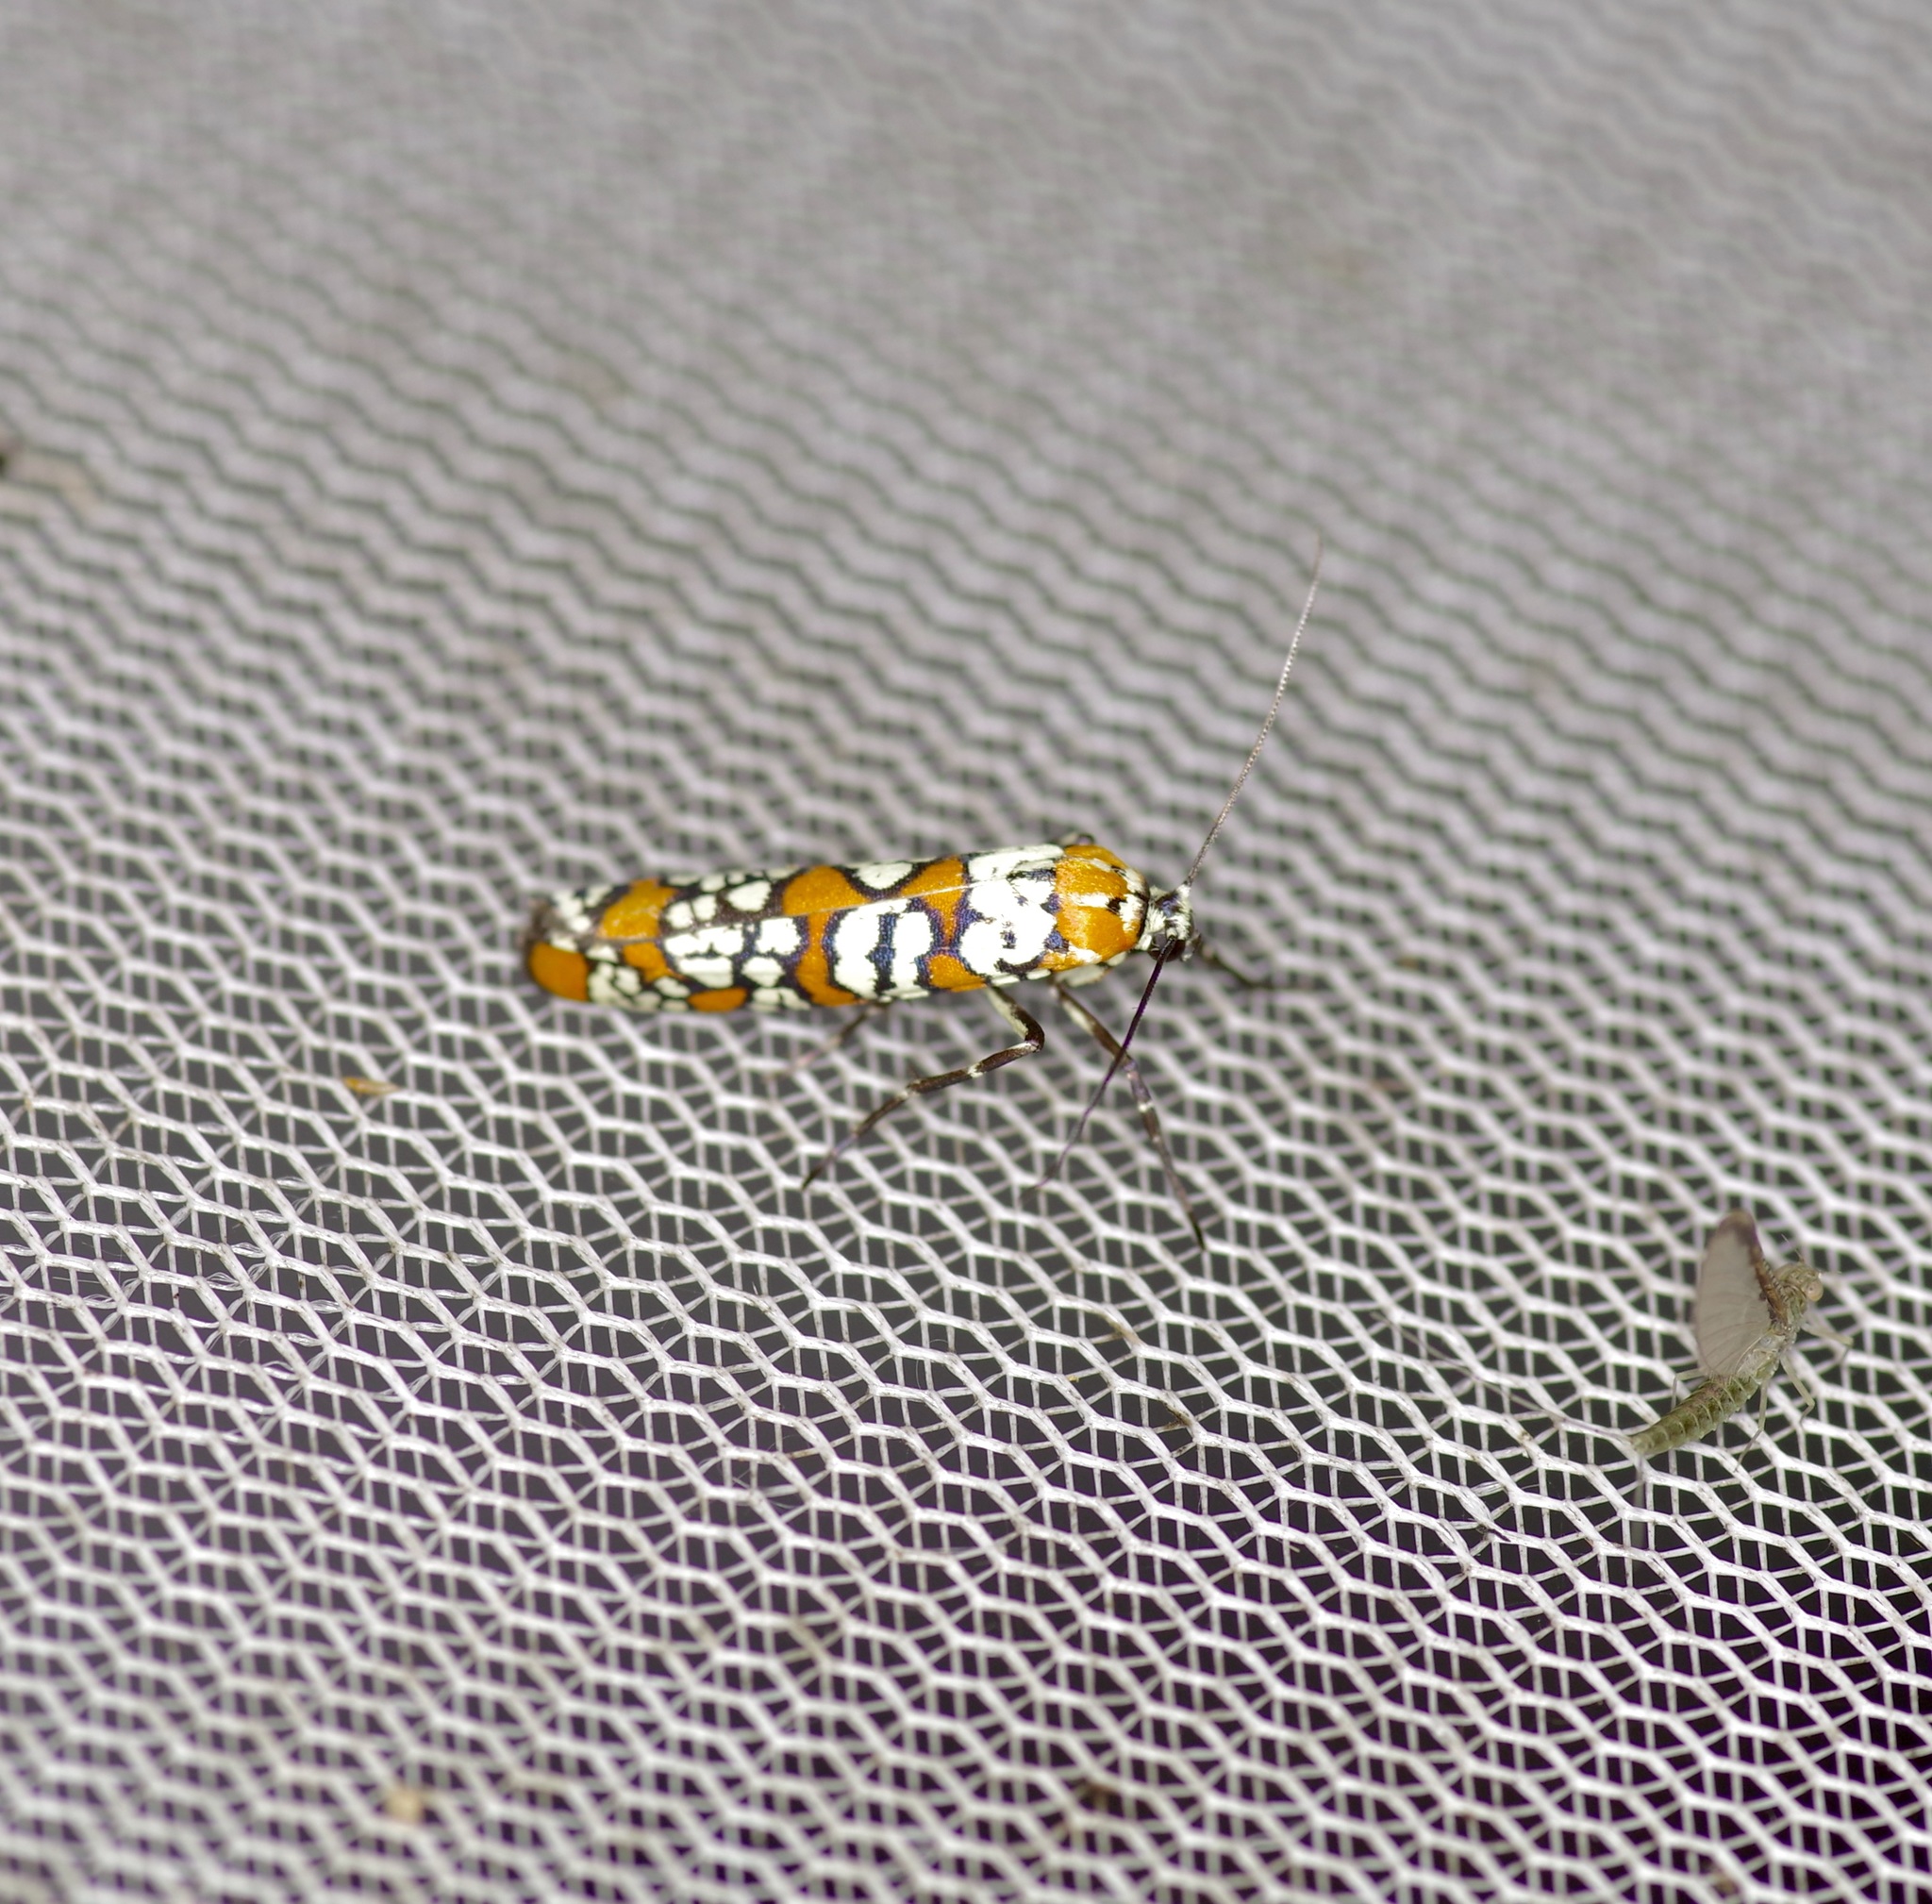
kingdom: Animalia
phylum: Arthropoda
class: Insecta
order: Lepidoptera
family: Attevidae
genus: Atteva
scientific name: Atteva punctella
